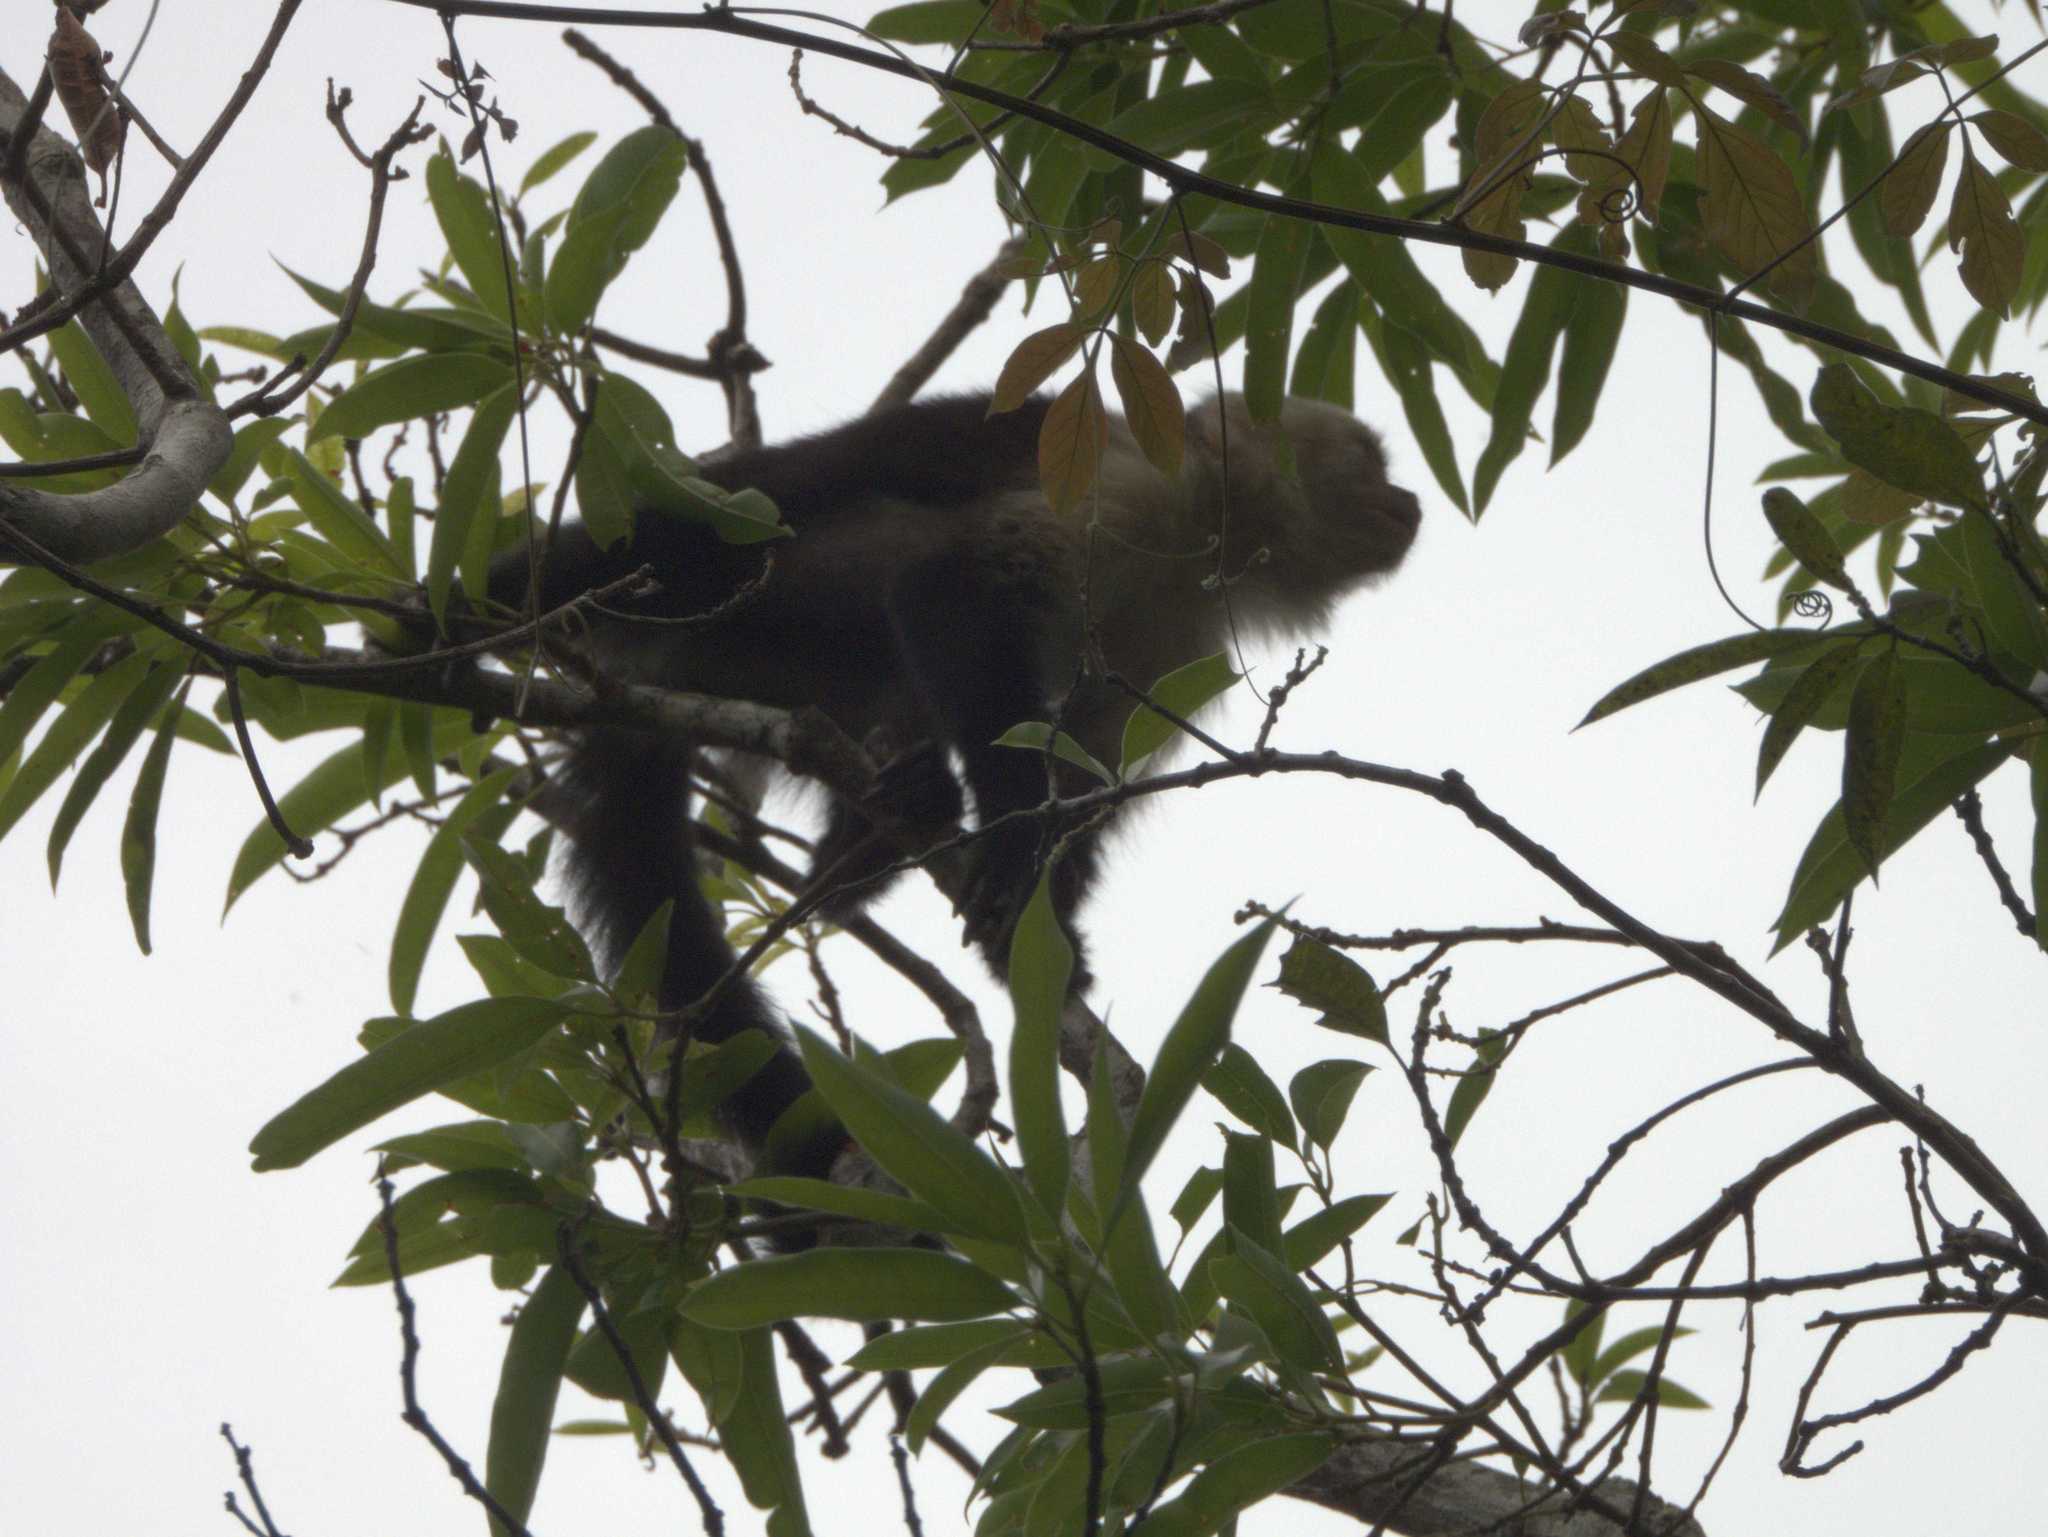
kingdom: Animalia
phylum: Chordata
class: Mammalia
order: Primates
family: Cebidae
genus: Cebus
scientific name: Cebus imitator
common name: Panamanian white-faced capuchin
